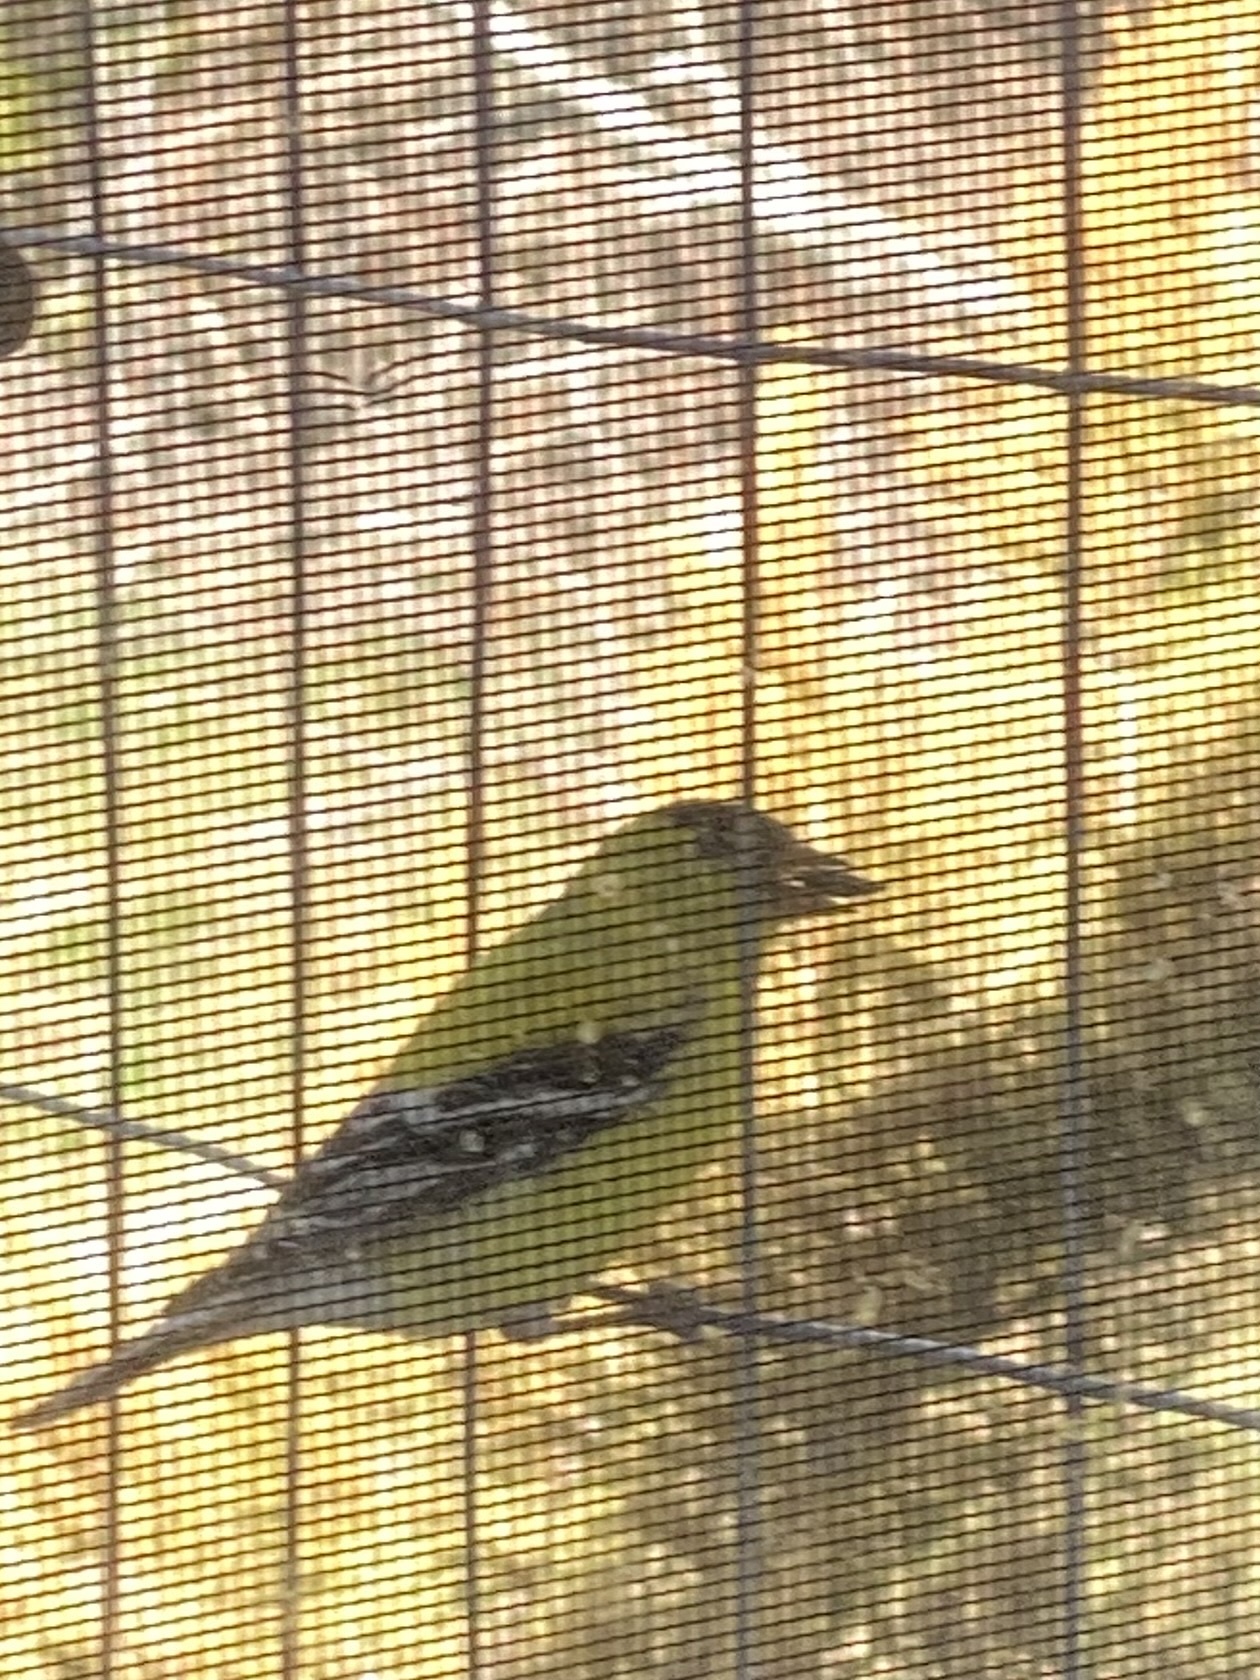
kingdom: Animalia
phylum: Chordata
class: Aves
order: Passeriformes
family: Fringillidae
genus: Spinus
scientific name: Spinus tristis
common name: American goldfinch
